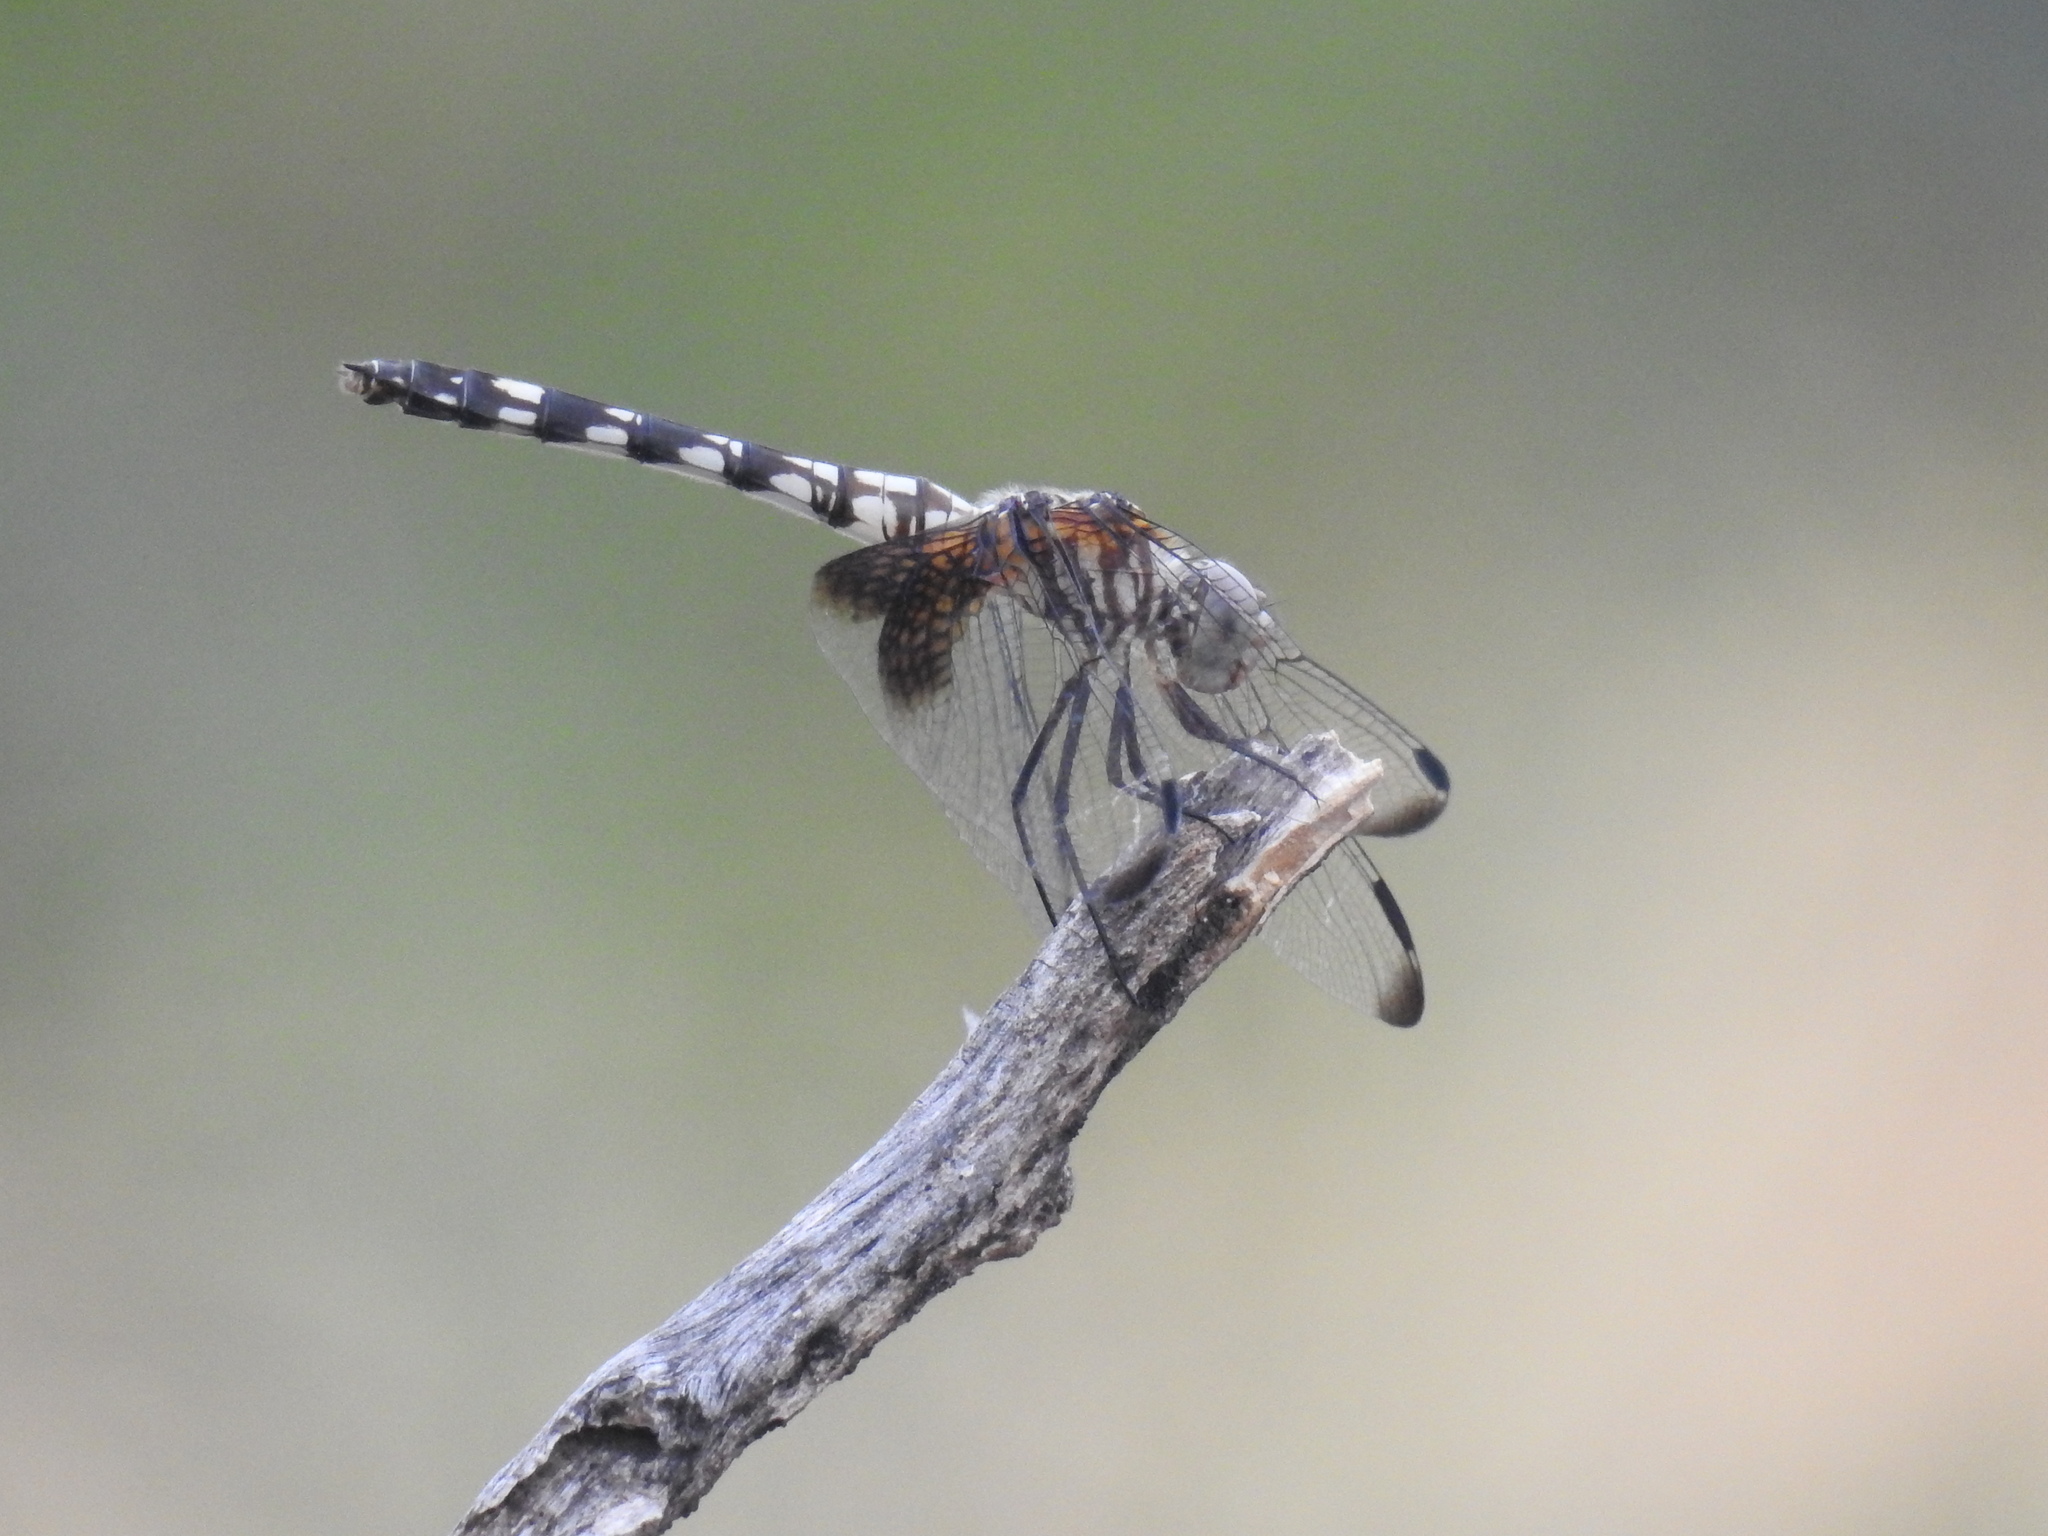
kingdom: Animalia
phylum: Arthropoda
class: Insecta
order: Odonata
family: Libellulidae
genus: Dythemis
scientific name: Dythemis fugax
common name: Checkered setwing
